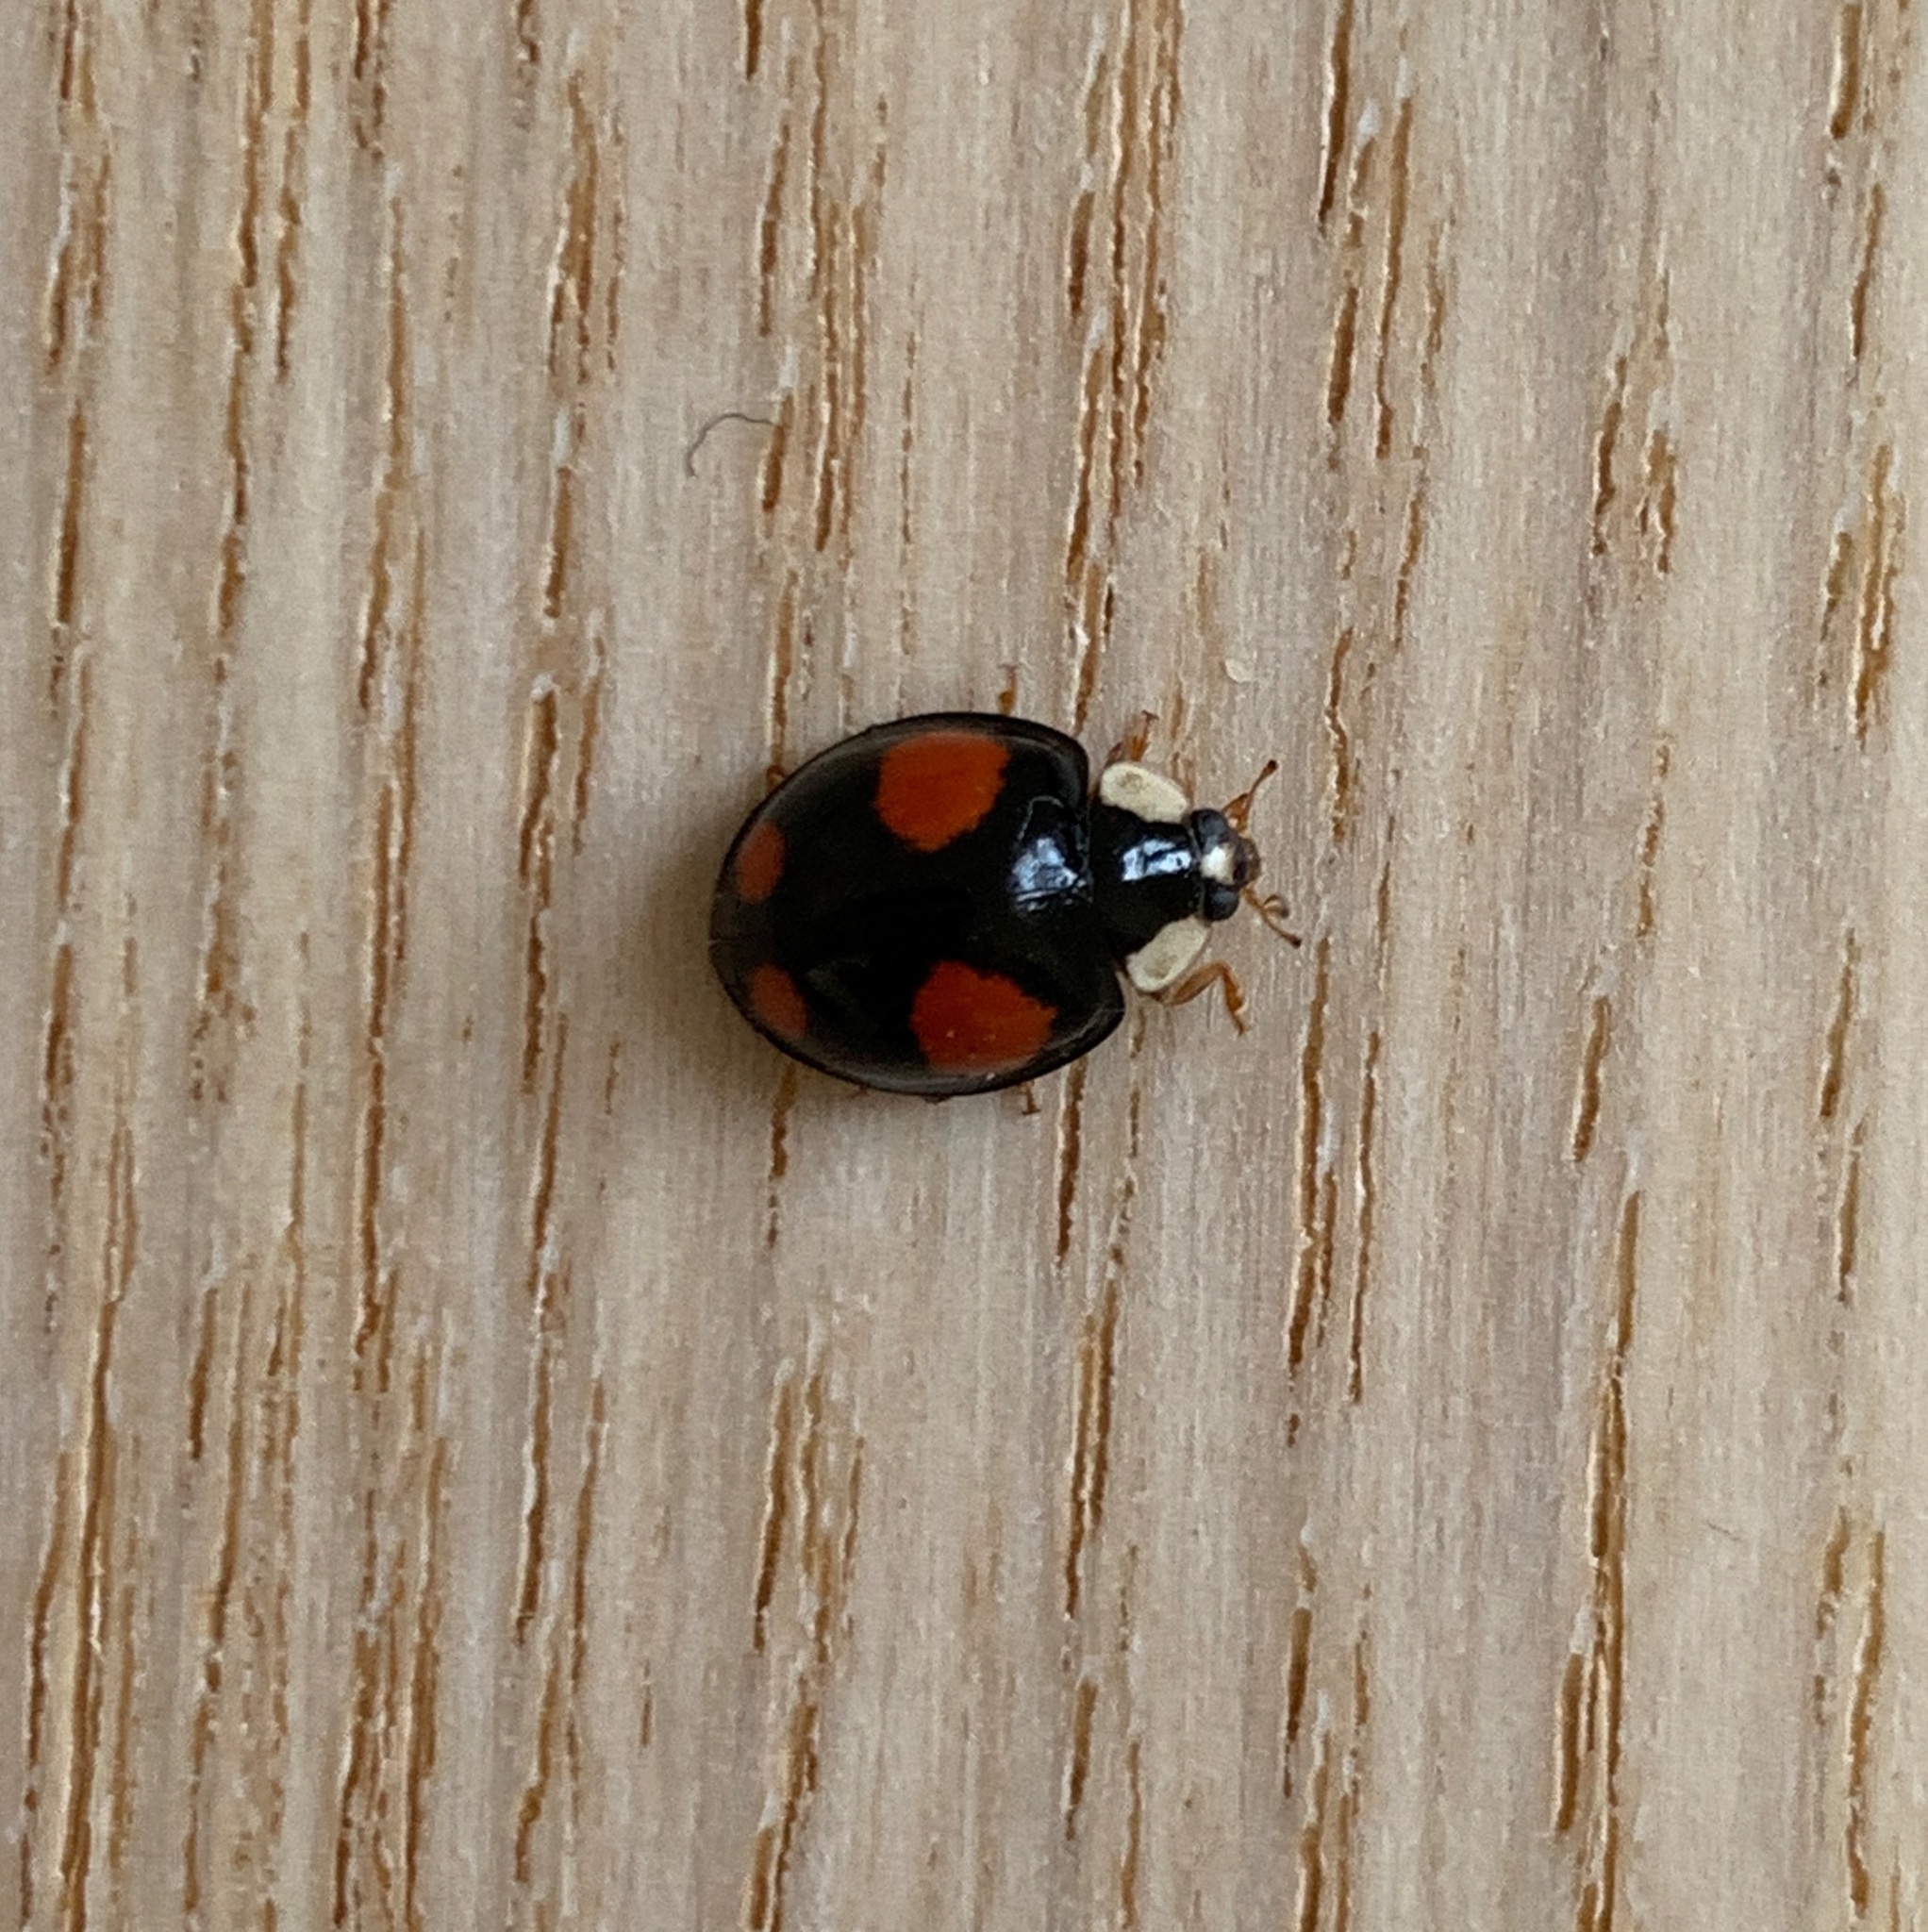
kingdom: Animalia
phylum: Arthropoda
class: Insecta
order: Coleoptera
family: Coccinellidae
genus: Harmonia
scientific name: Harmonia axyridis
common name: Harlequin ladybird
